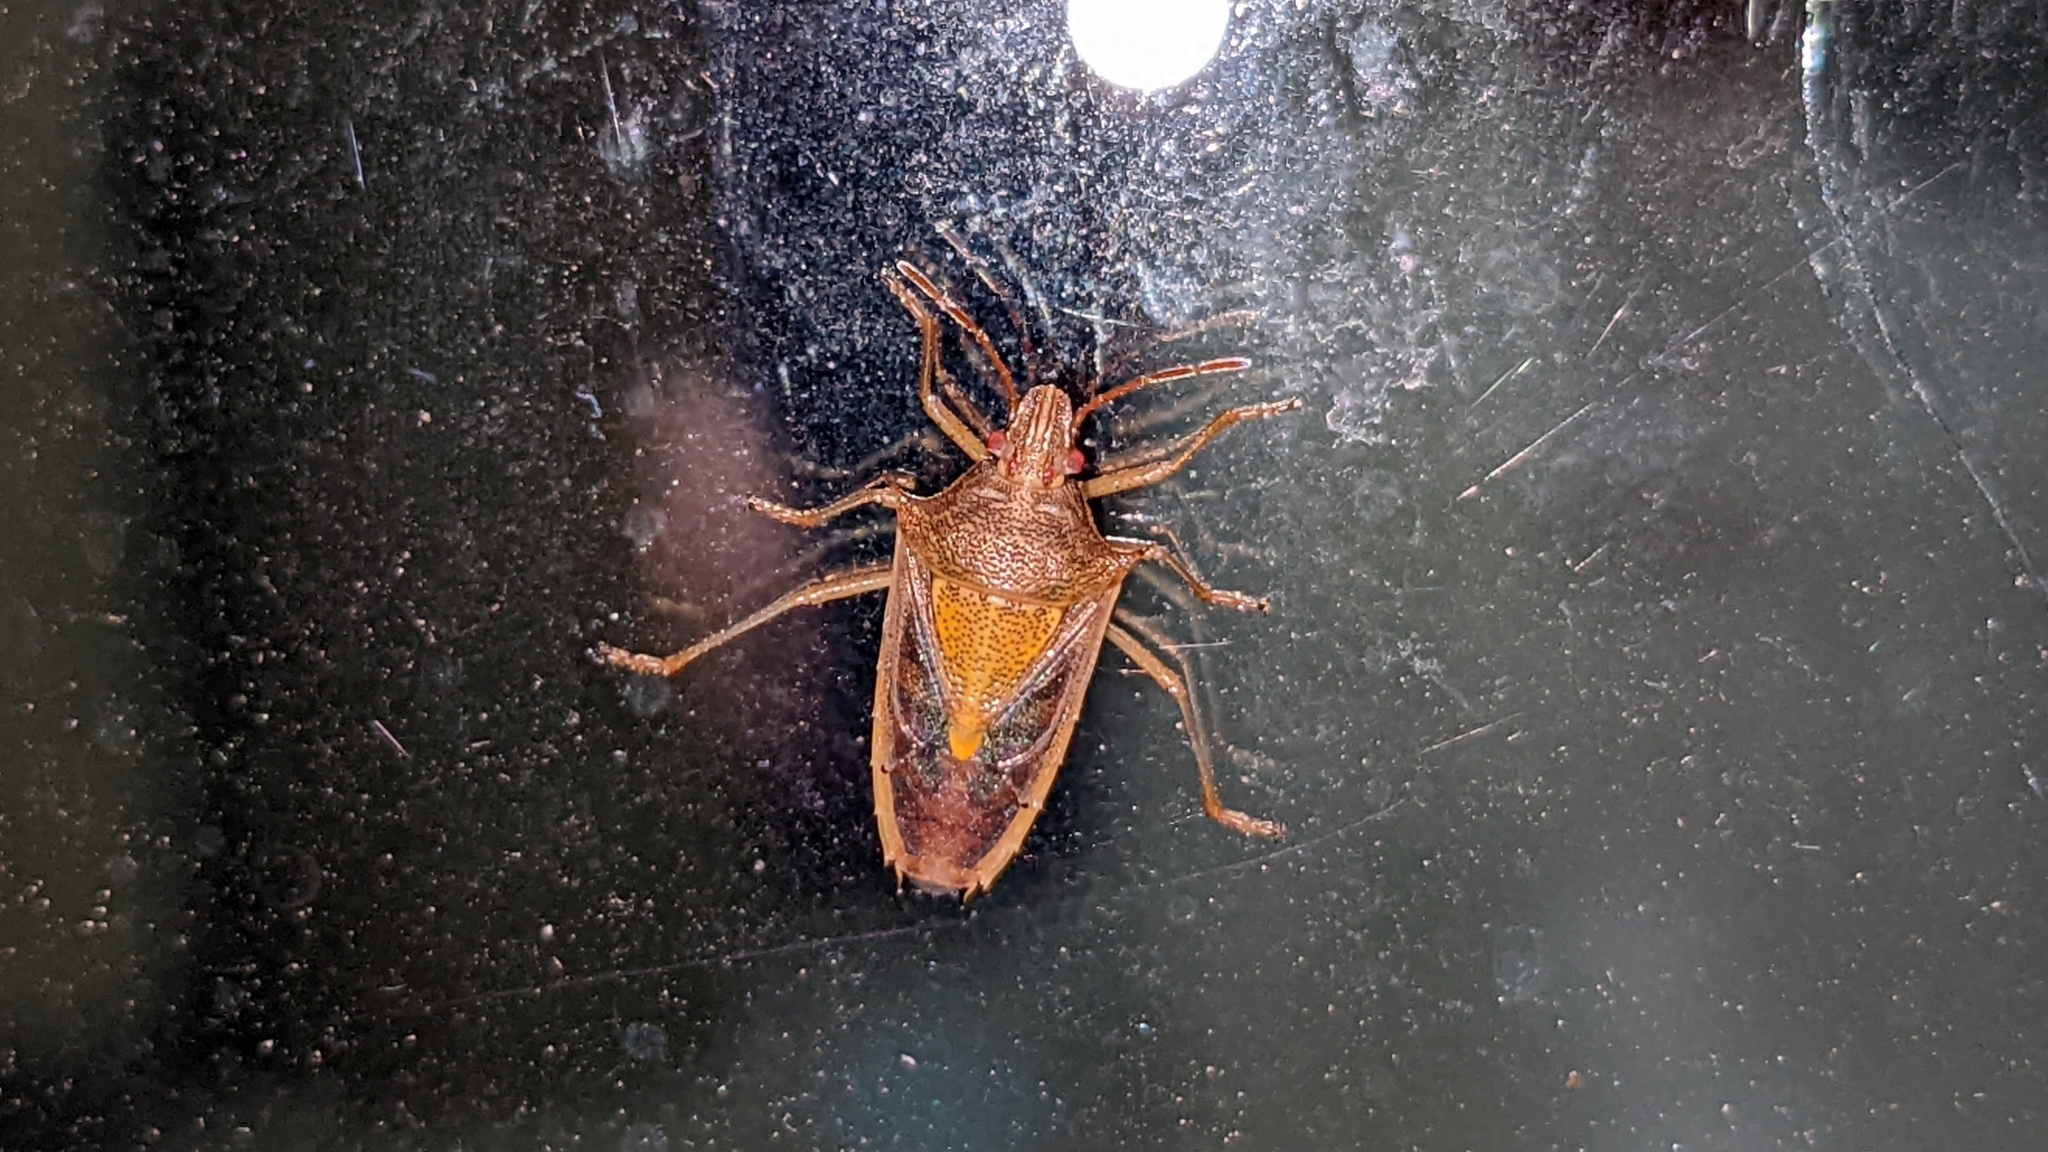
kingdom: Animalia
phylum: Arthropoda
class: Insecta
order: Hemiptera
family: Pentatomidae
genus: Oebalus
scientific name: Oebalus pugnax
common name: Rice stink bug
